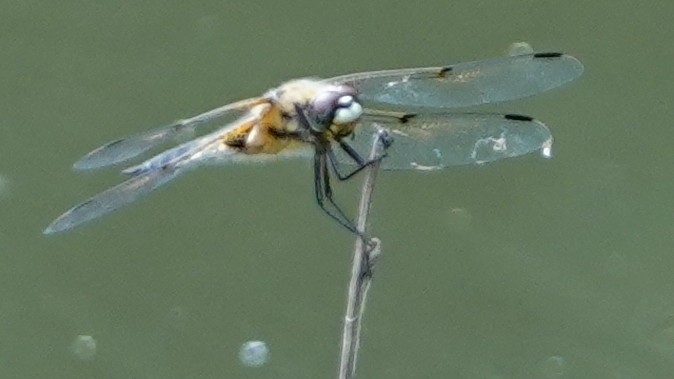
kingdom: Animalia
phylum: Arthropoda
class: Insecta
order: Odonata
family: Libellulidae
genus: Libellula
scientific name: Libellula quadrimaculata
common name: Four-spotted chaser
